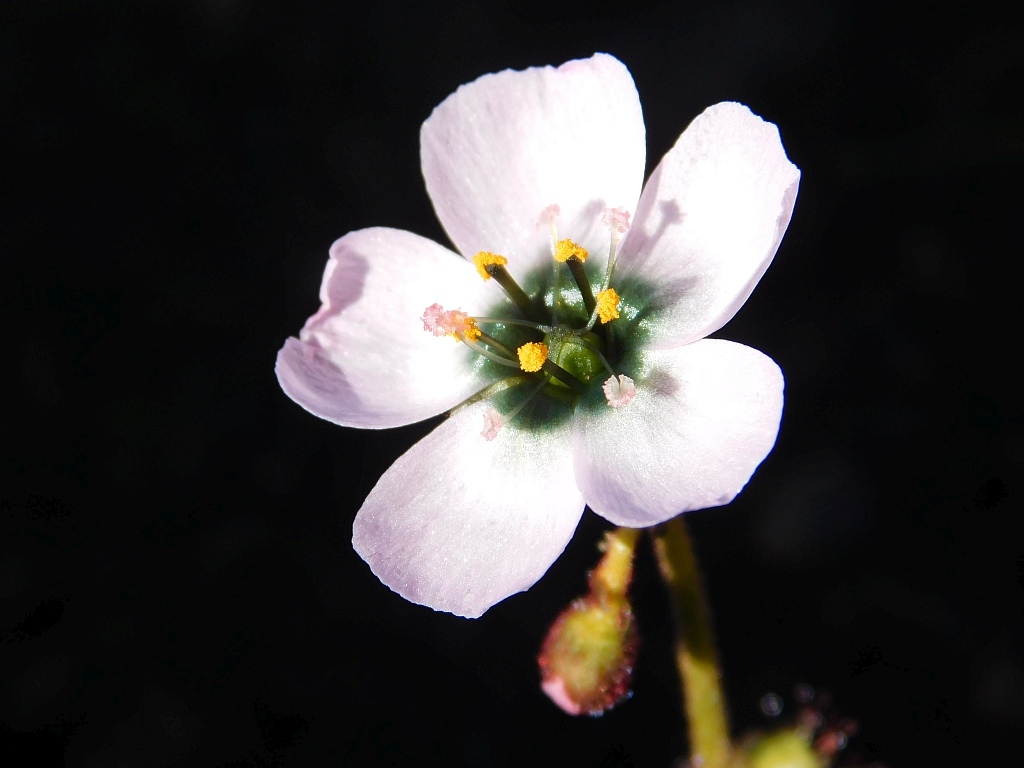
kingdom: Plantae
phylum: Tracheophyta
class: Magnoliopsida
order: Caryophyllales
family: Droseraceae
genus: Drosera
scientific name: Drosera cistiflora
